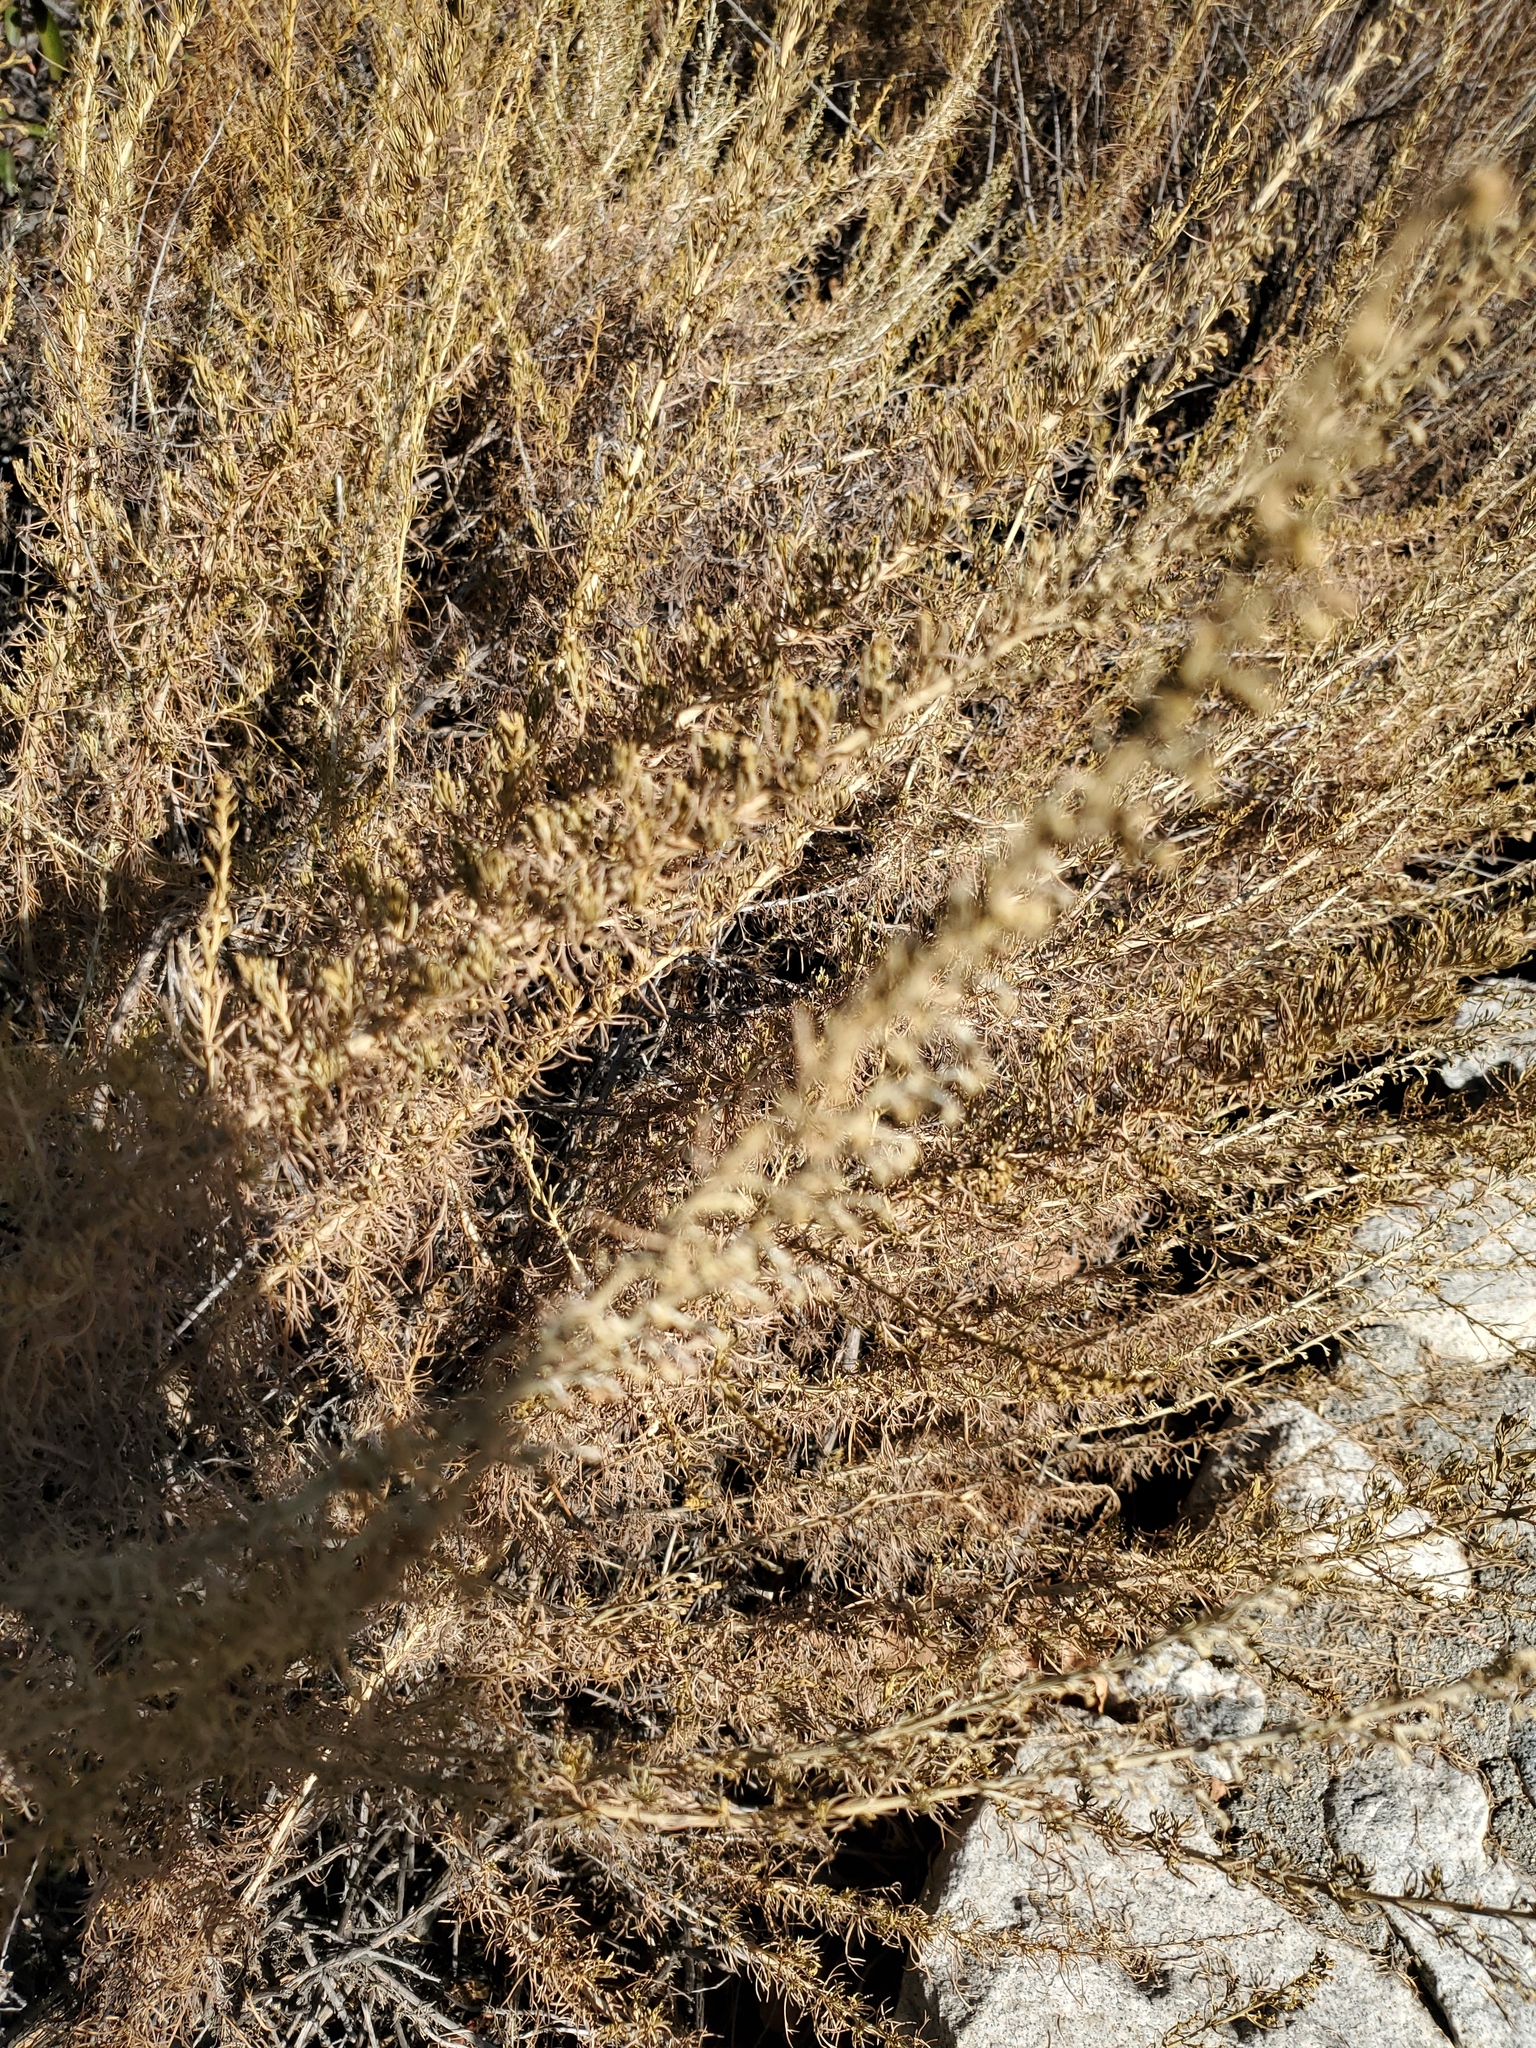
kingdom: Plantae
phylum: Tracheophyta
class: Magnoliopsida
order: Asterales
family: Asteraceae
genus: Artemisia
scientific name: Artemisia californica
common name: California sagebrush
